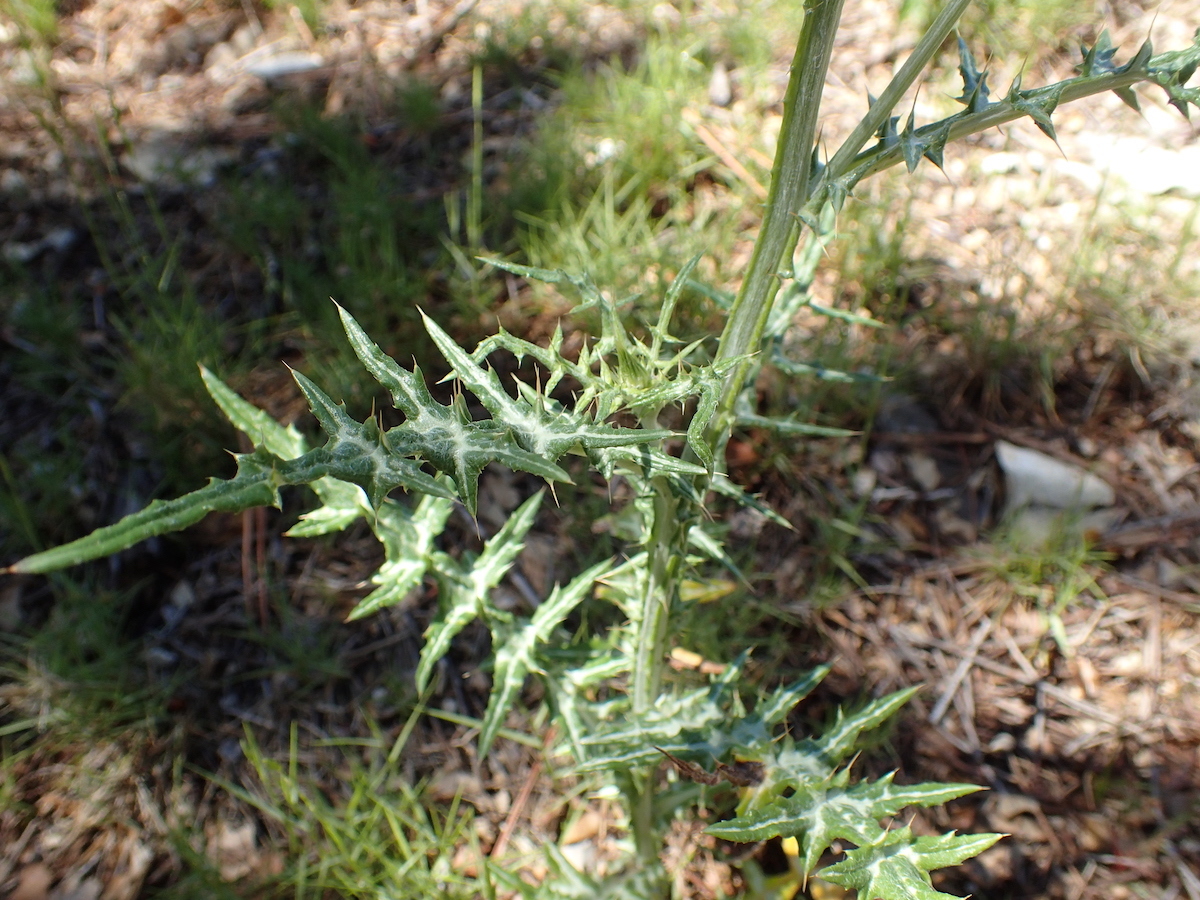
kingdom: Plantae
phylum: Tracheophyta
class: Magnoliopsida
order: Asterales
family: Asteraceae
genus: Galactites
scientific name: Galactites tomentosa
